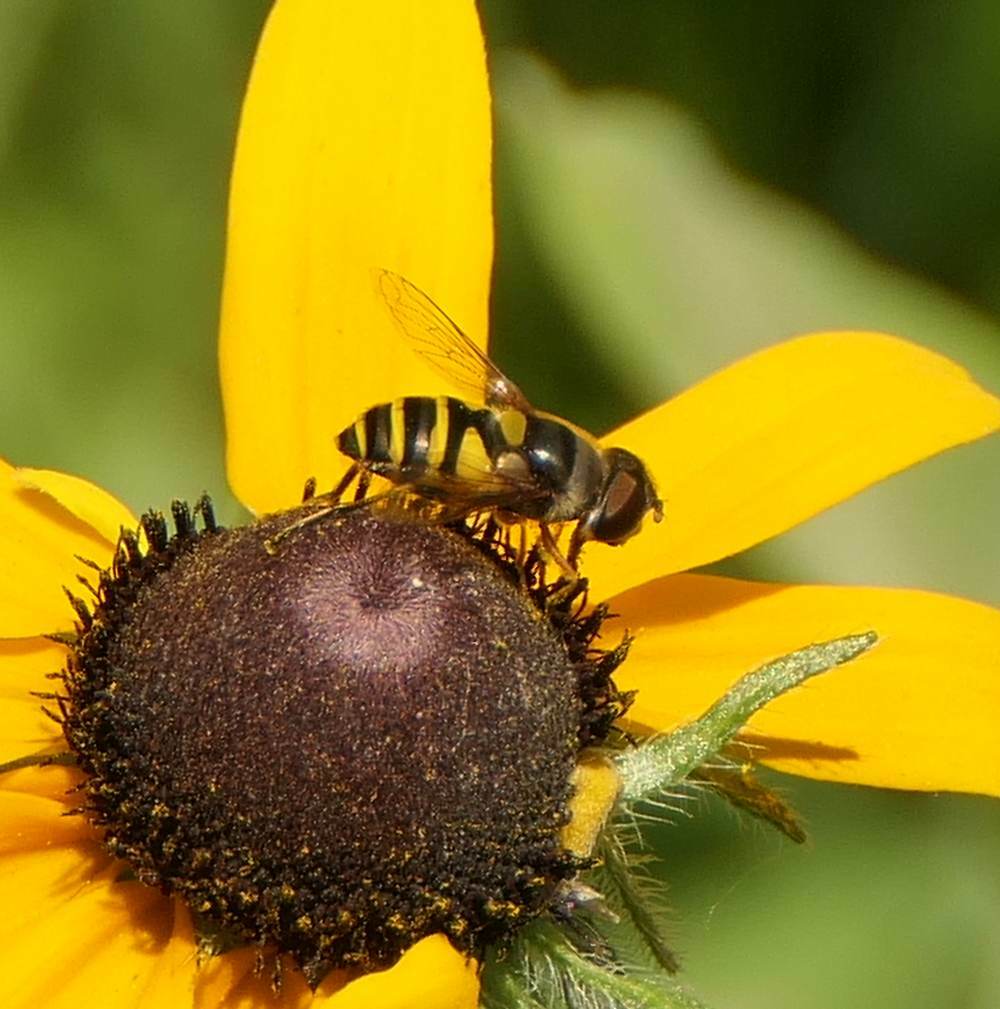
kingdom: Animalia
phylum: Arthropoda
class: Insecta
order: Diptera
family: Syrphidae
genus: Eristalis
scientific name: Eristalis transversa
